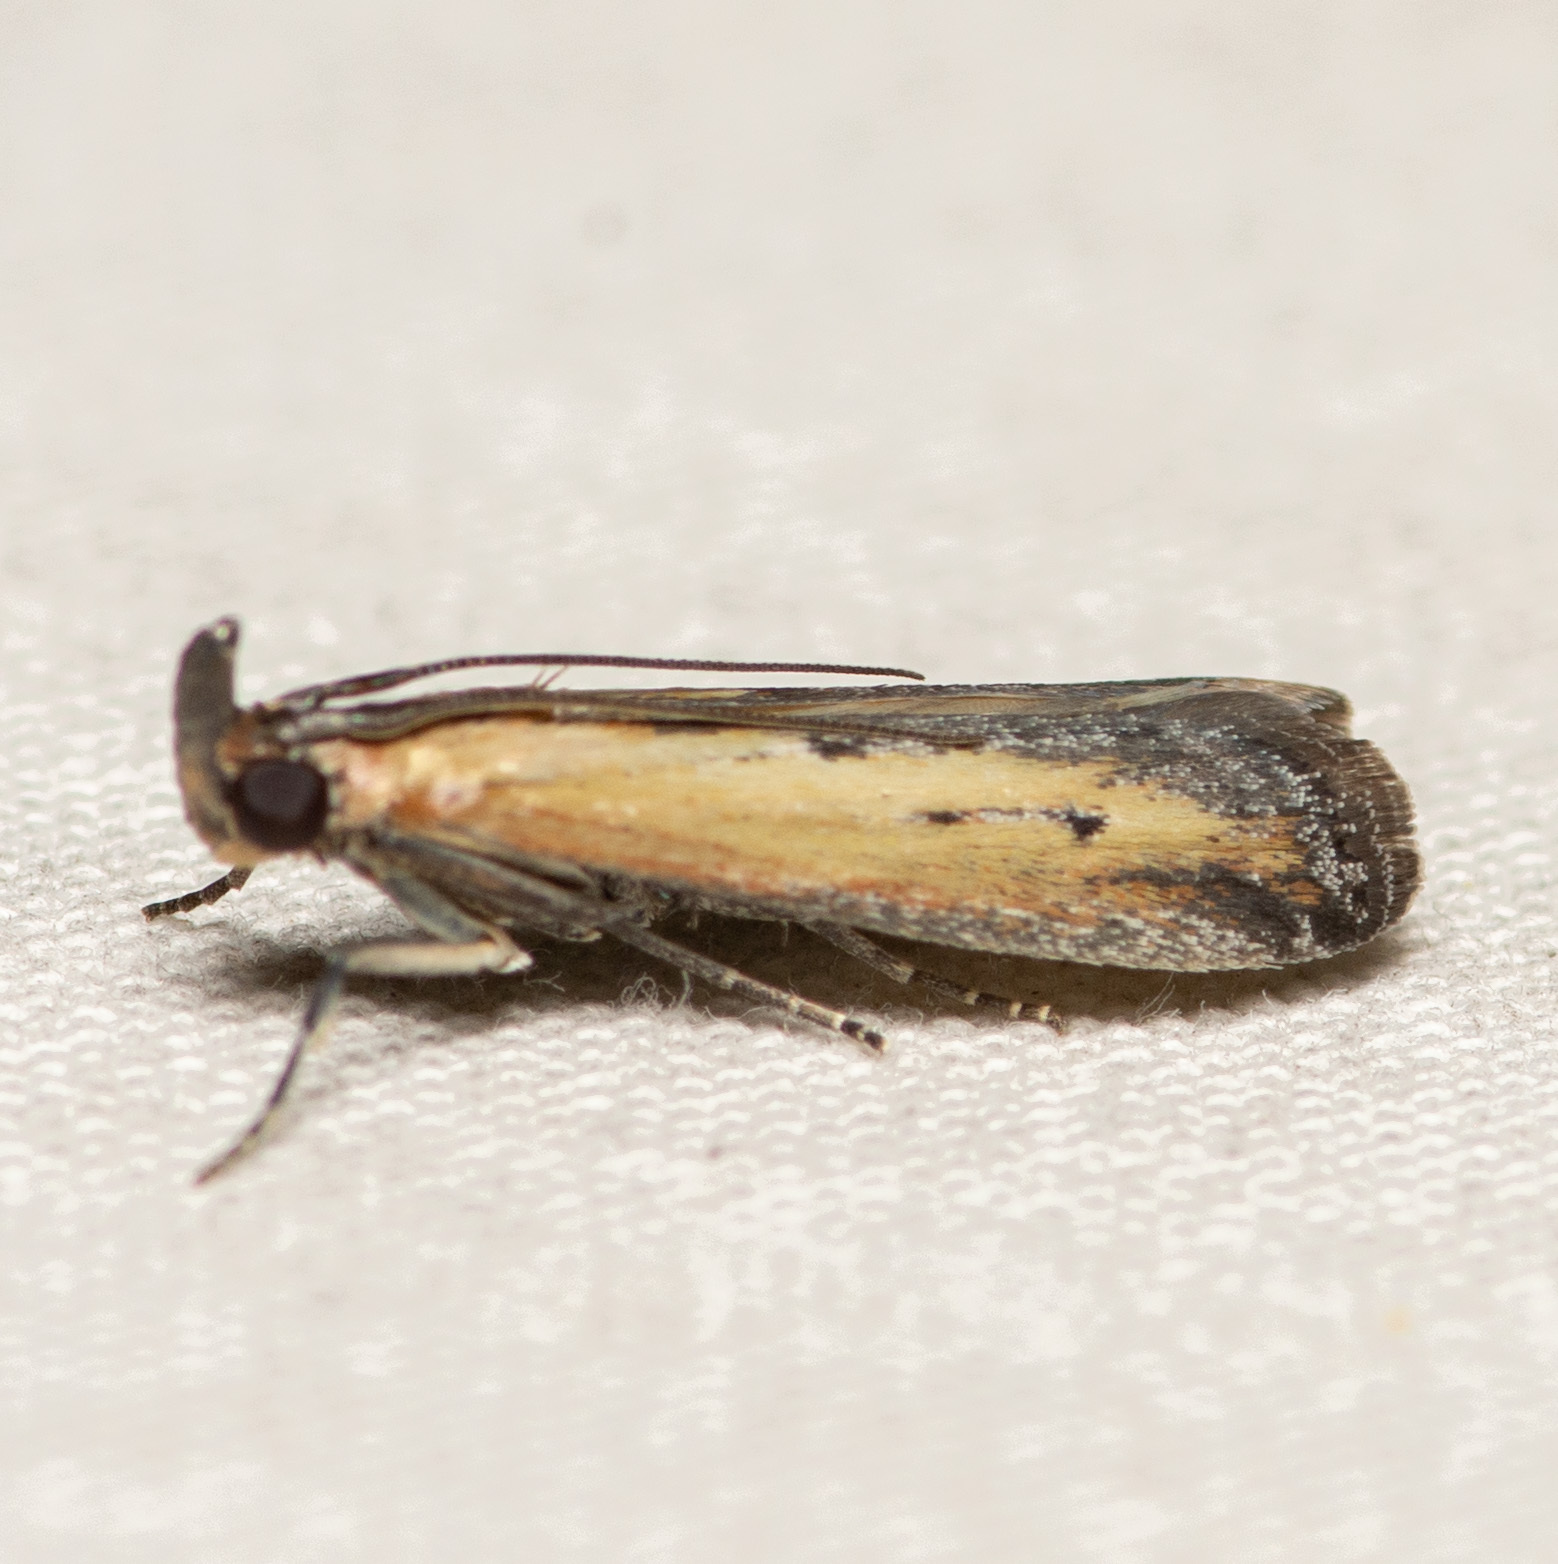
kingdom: Animalia
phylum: Arthropoda
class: Insecta
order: Lepidoptera
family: Pyralidae
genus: Elasmopalpus
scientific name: Elasmopalpus lignosella
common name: Lesser cornstalk borer
